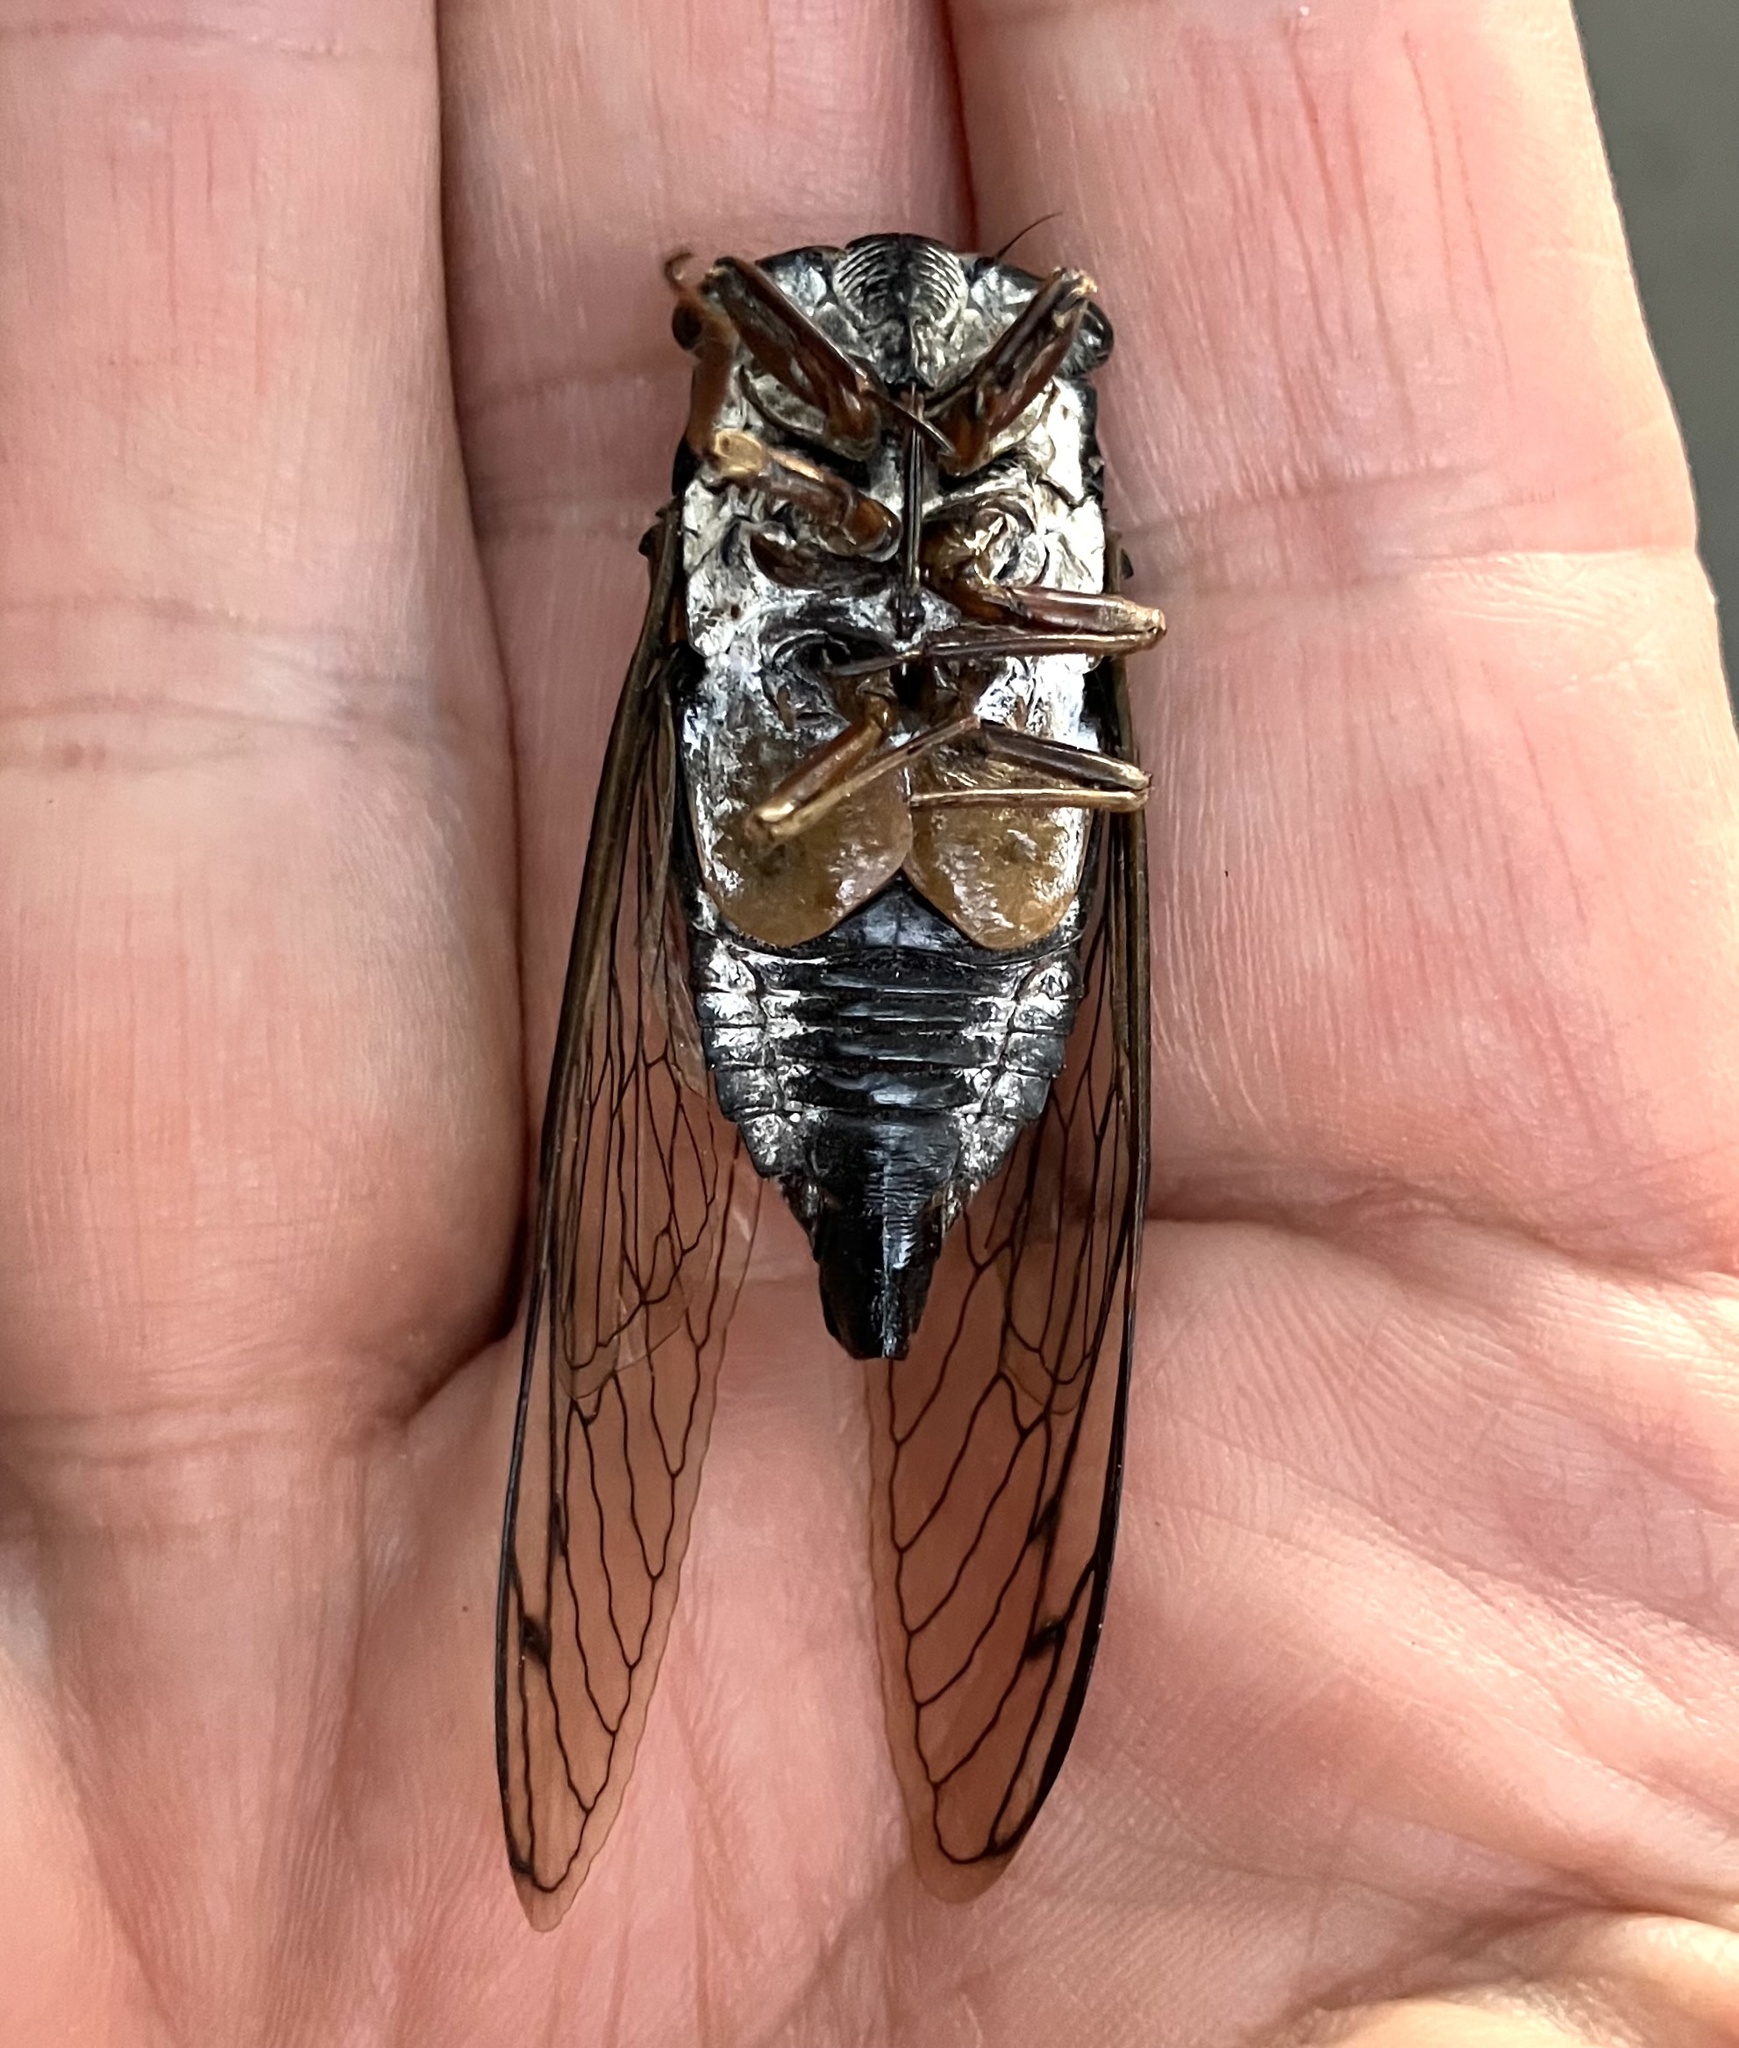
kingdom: Animalia
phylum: Arthropoda
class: Insecta
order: Hemiptera
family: Cicadidae
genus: Neotibicen
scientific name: Neotibicen lyricen
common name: Lyric cicada
